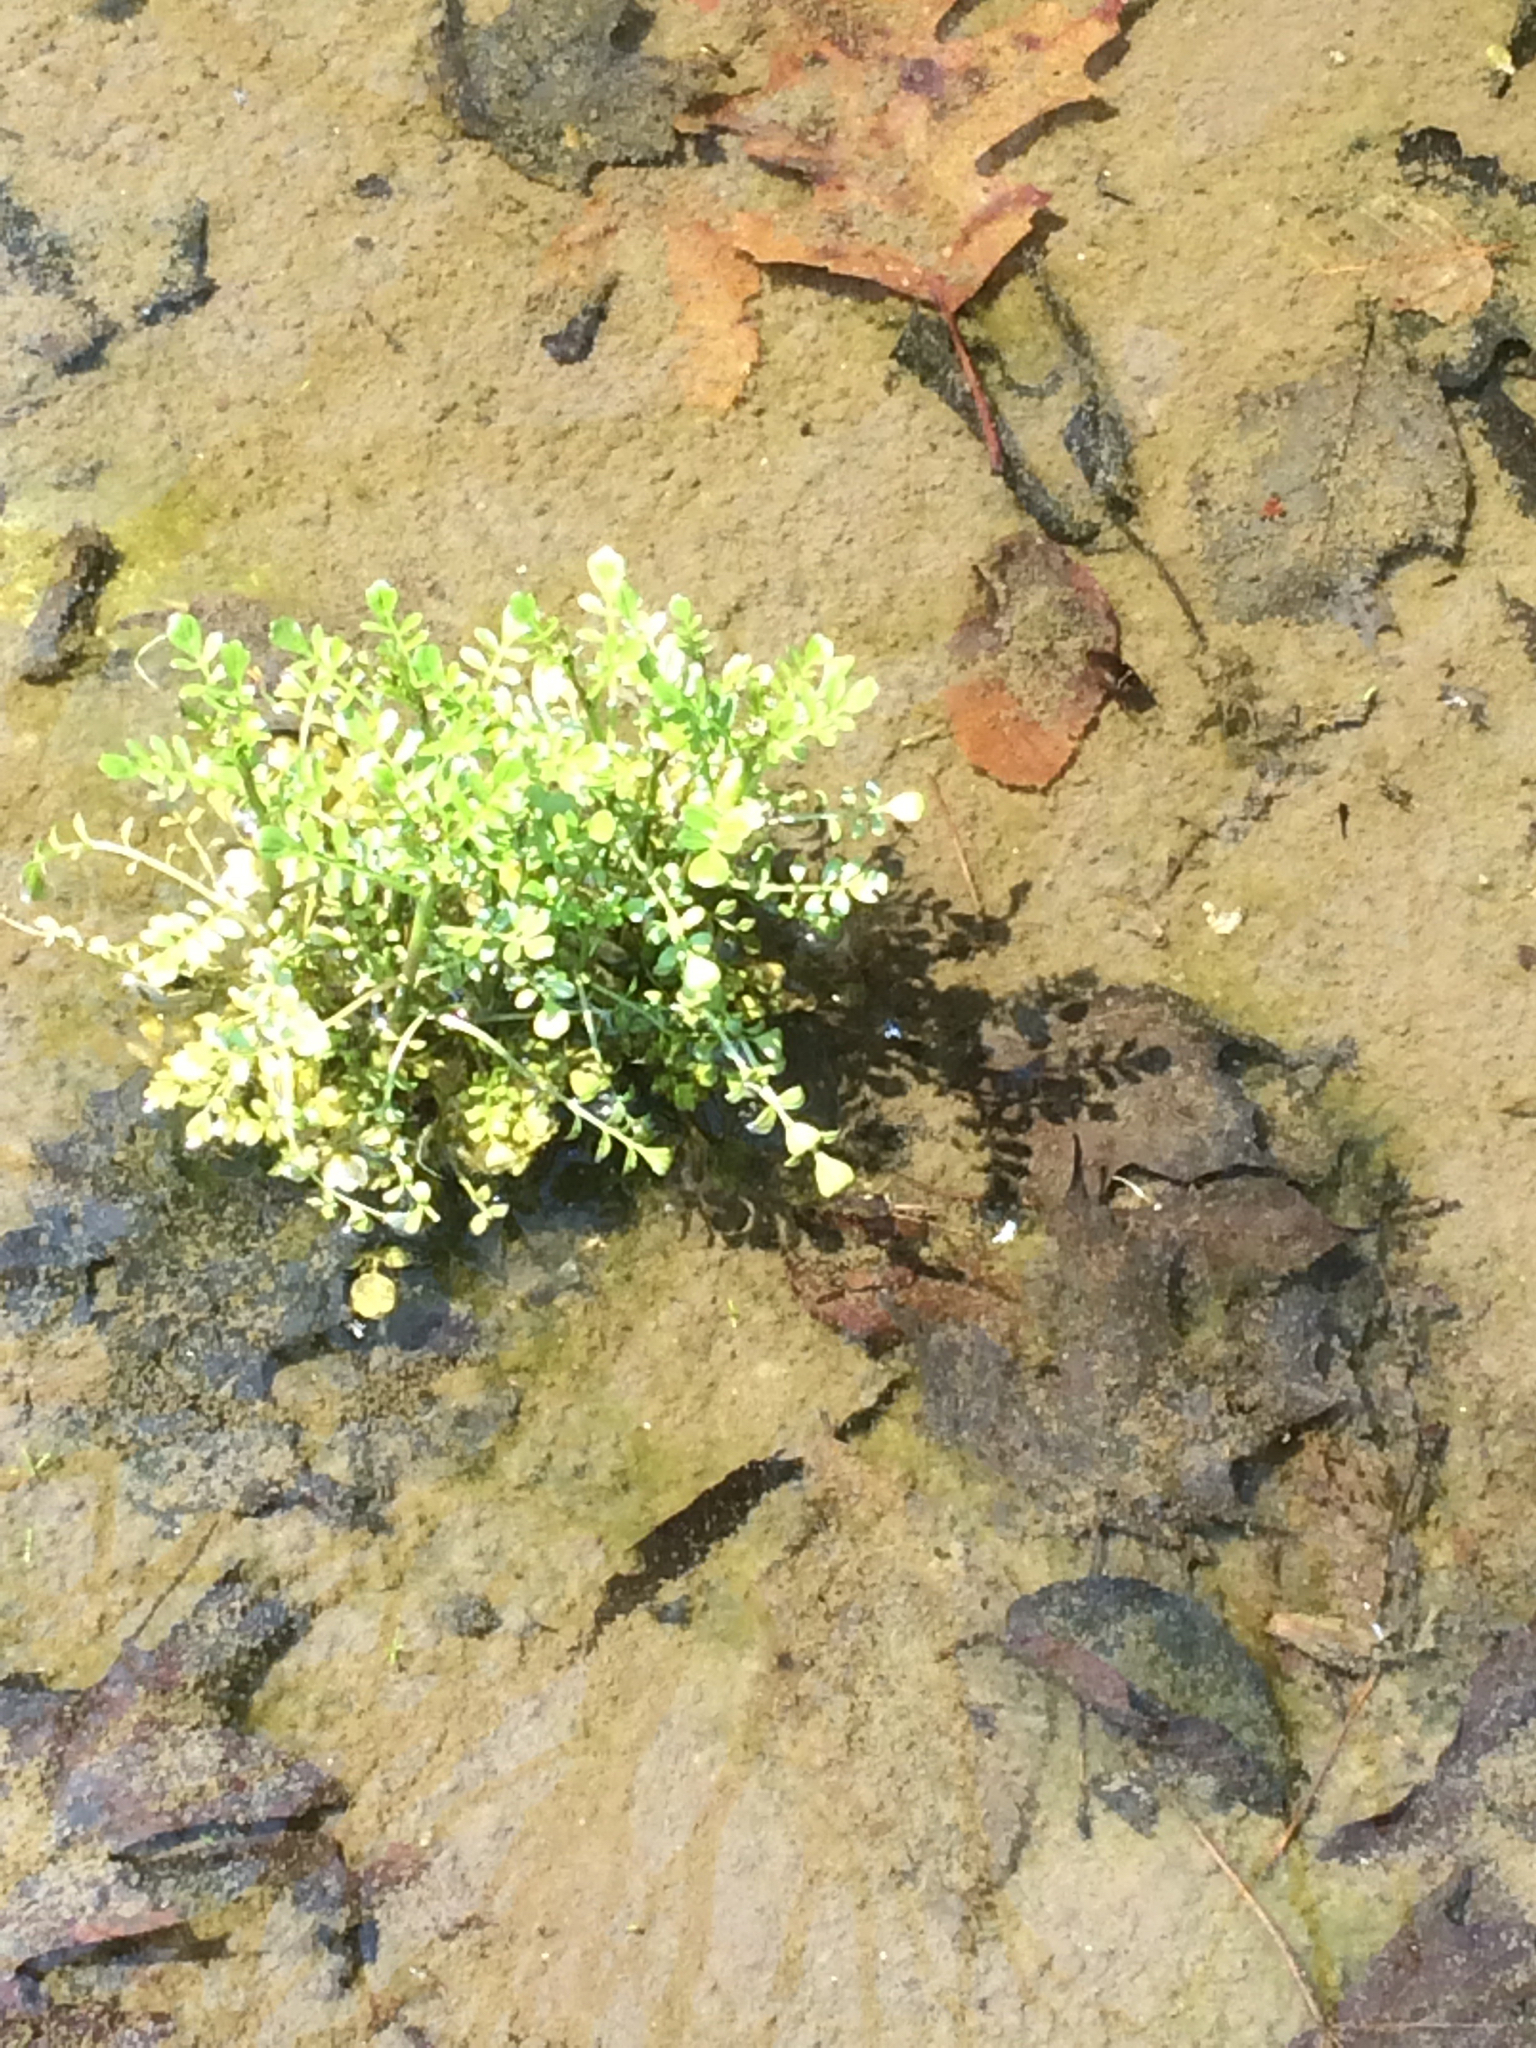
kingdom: Plantae
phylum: Tracheophyta
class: Magnoliopsida
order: Brassicales
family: Brassicaceae
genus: Cardamine
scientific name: Cardamine
